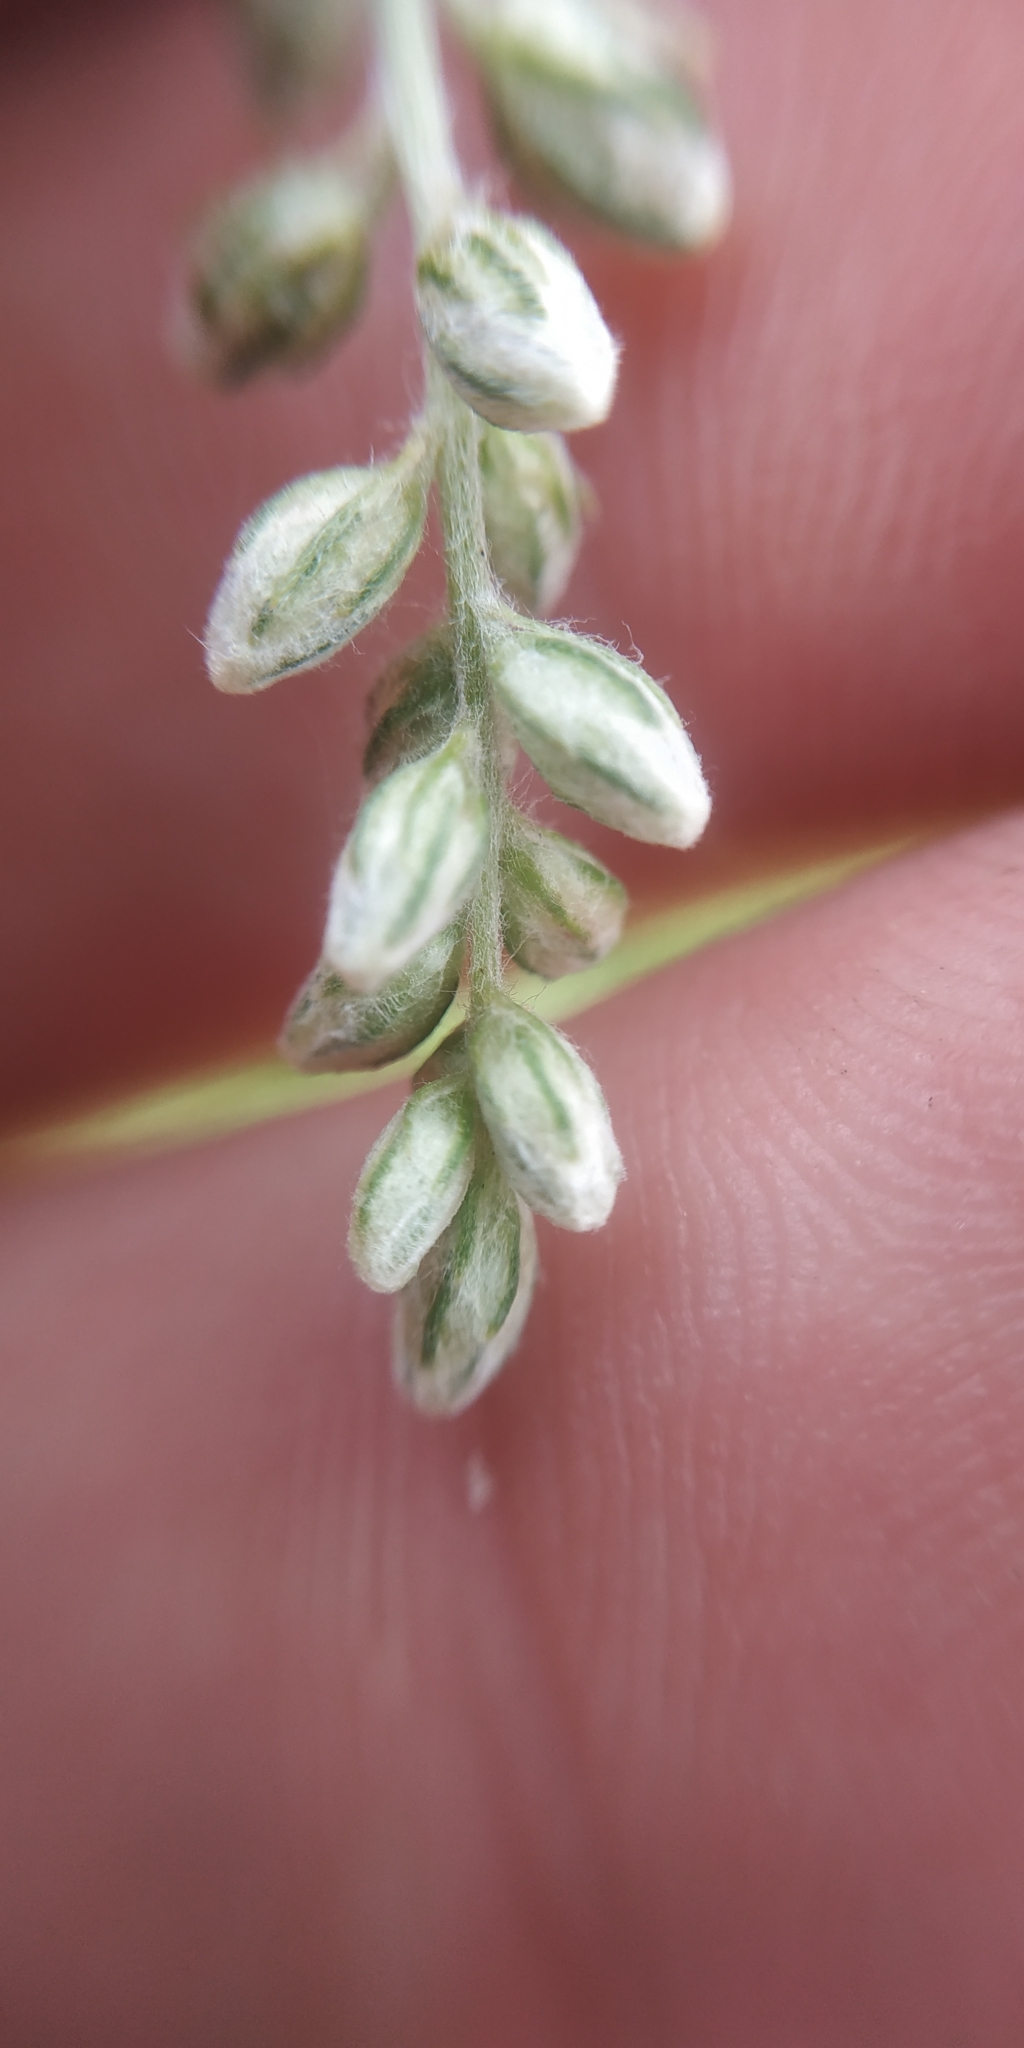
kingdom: Plantae
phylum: Tracheophyta
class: Magnoliopsida
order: Asterales
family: Asteraceae
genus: Artemisia
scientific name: Artemisia vulgaris
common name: Mugwort
